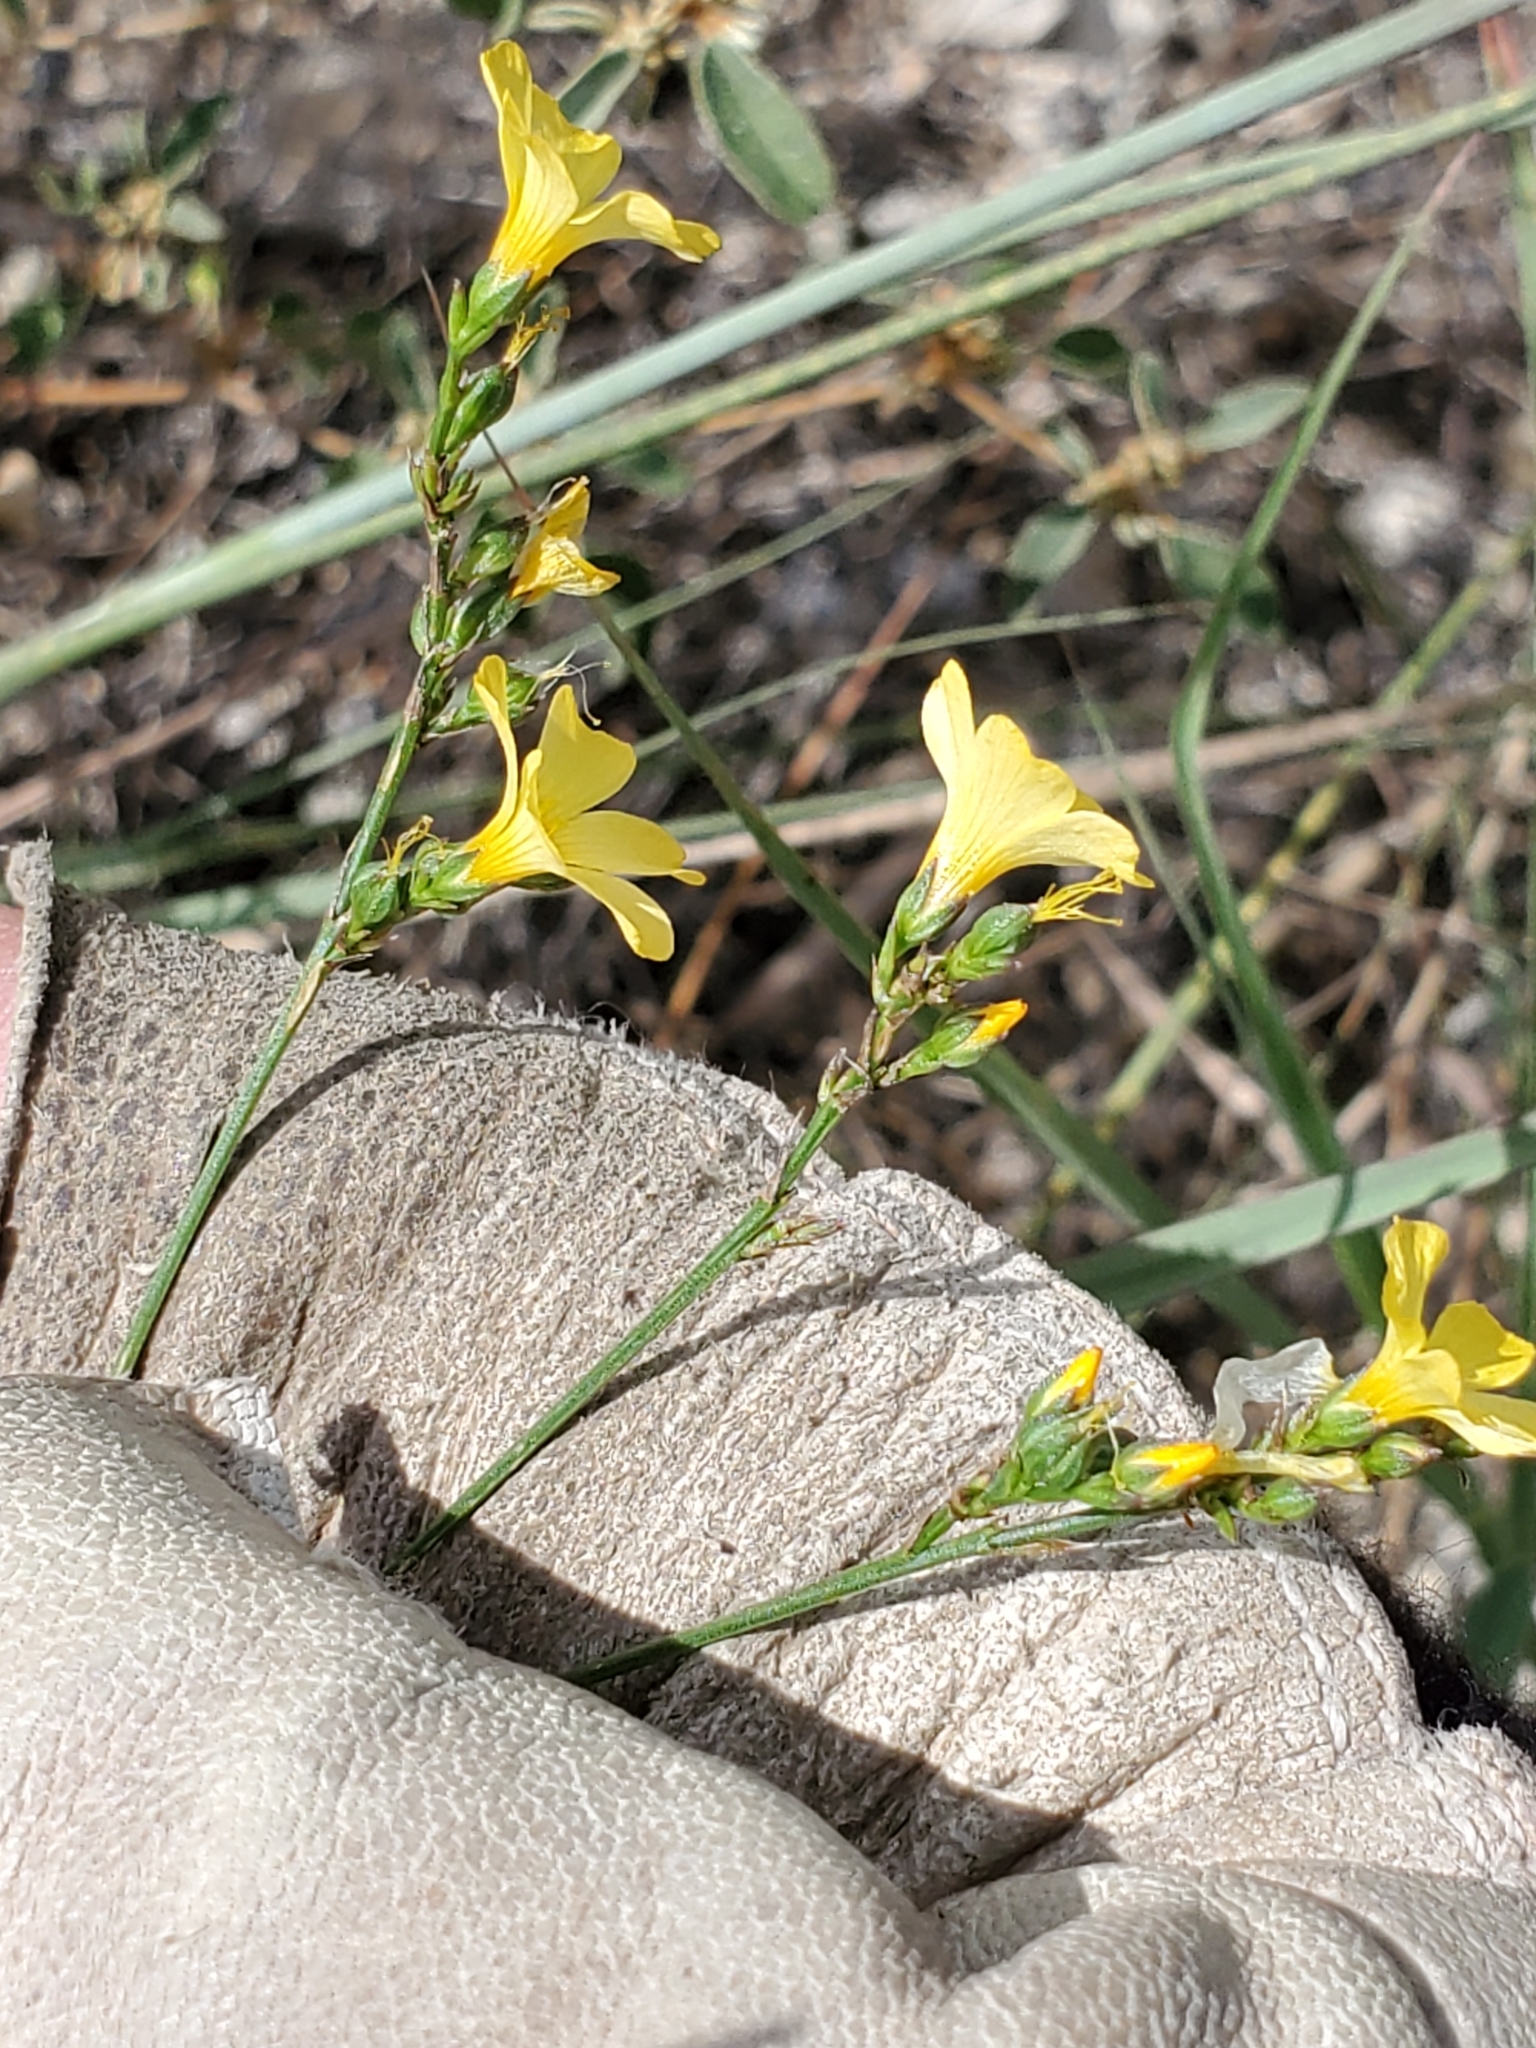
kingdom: Plantae
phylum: Tracheophyta
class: Magnoliopsida
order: Malpighiales
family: Linaceae
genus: Linum
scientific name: Linum rupestre
